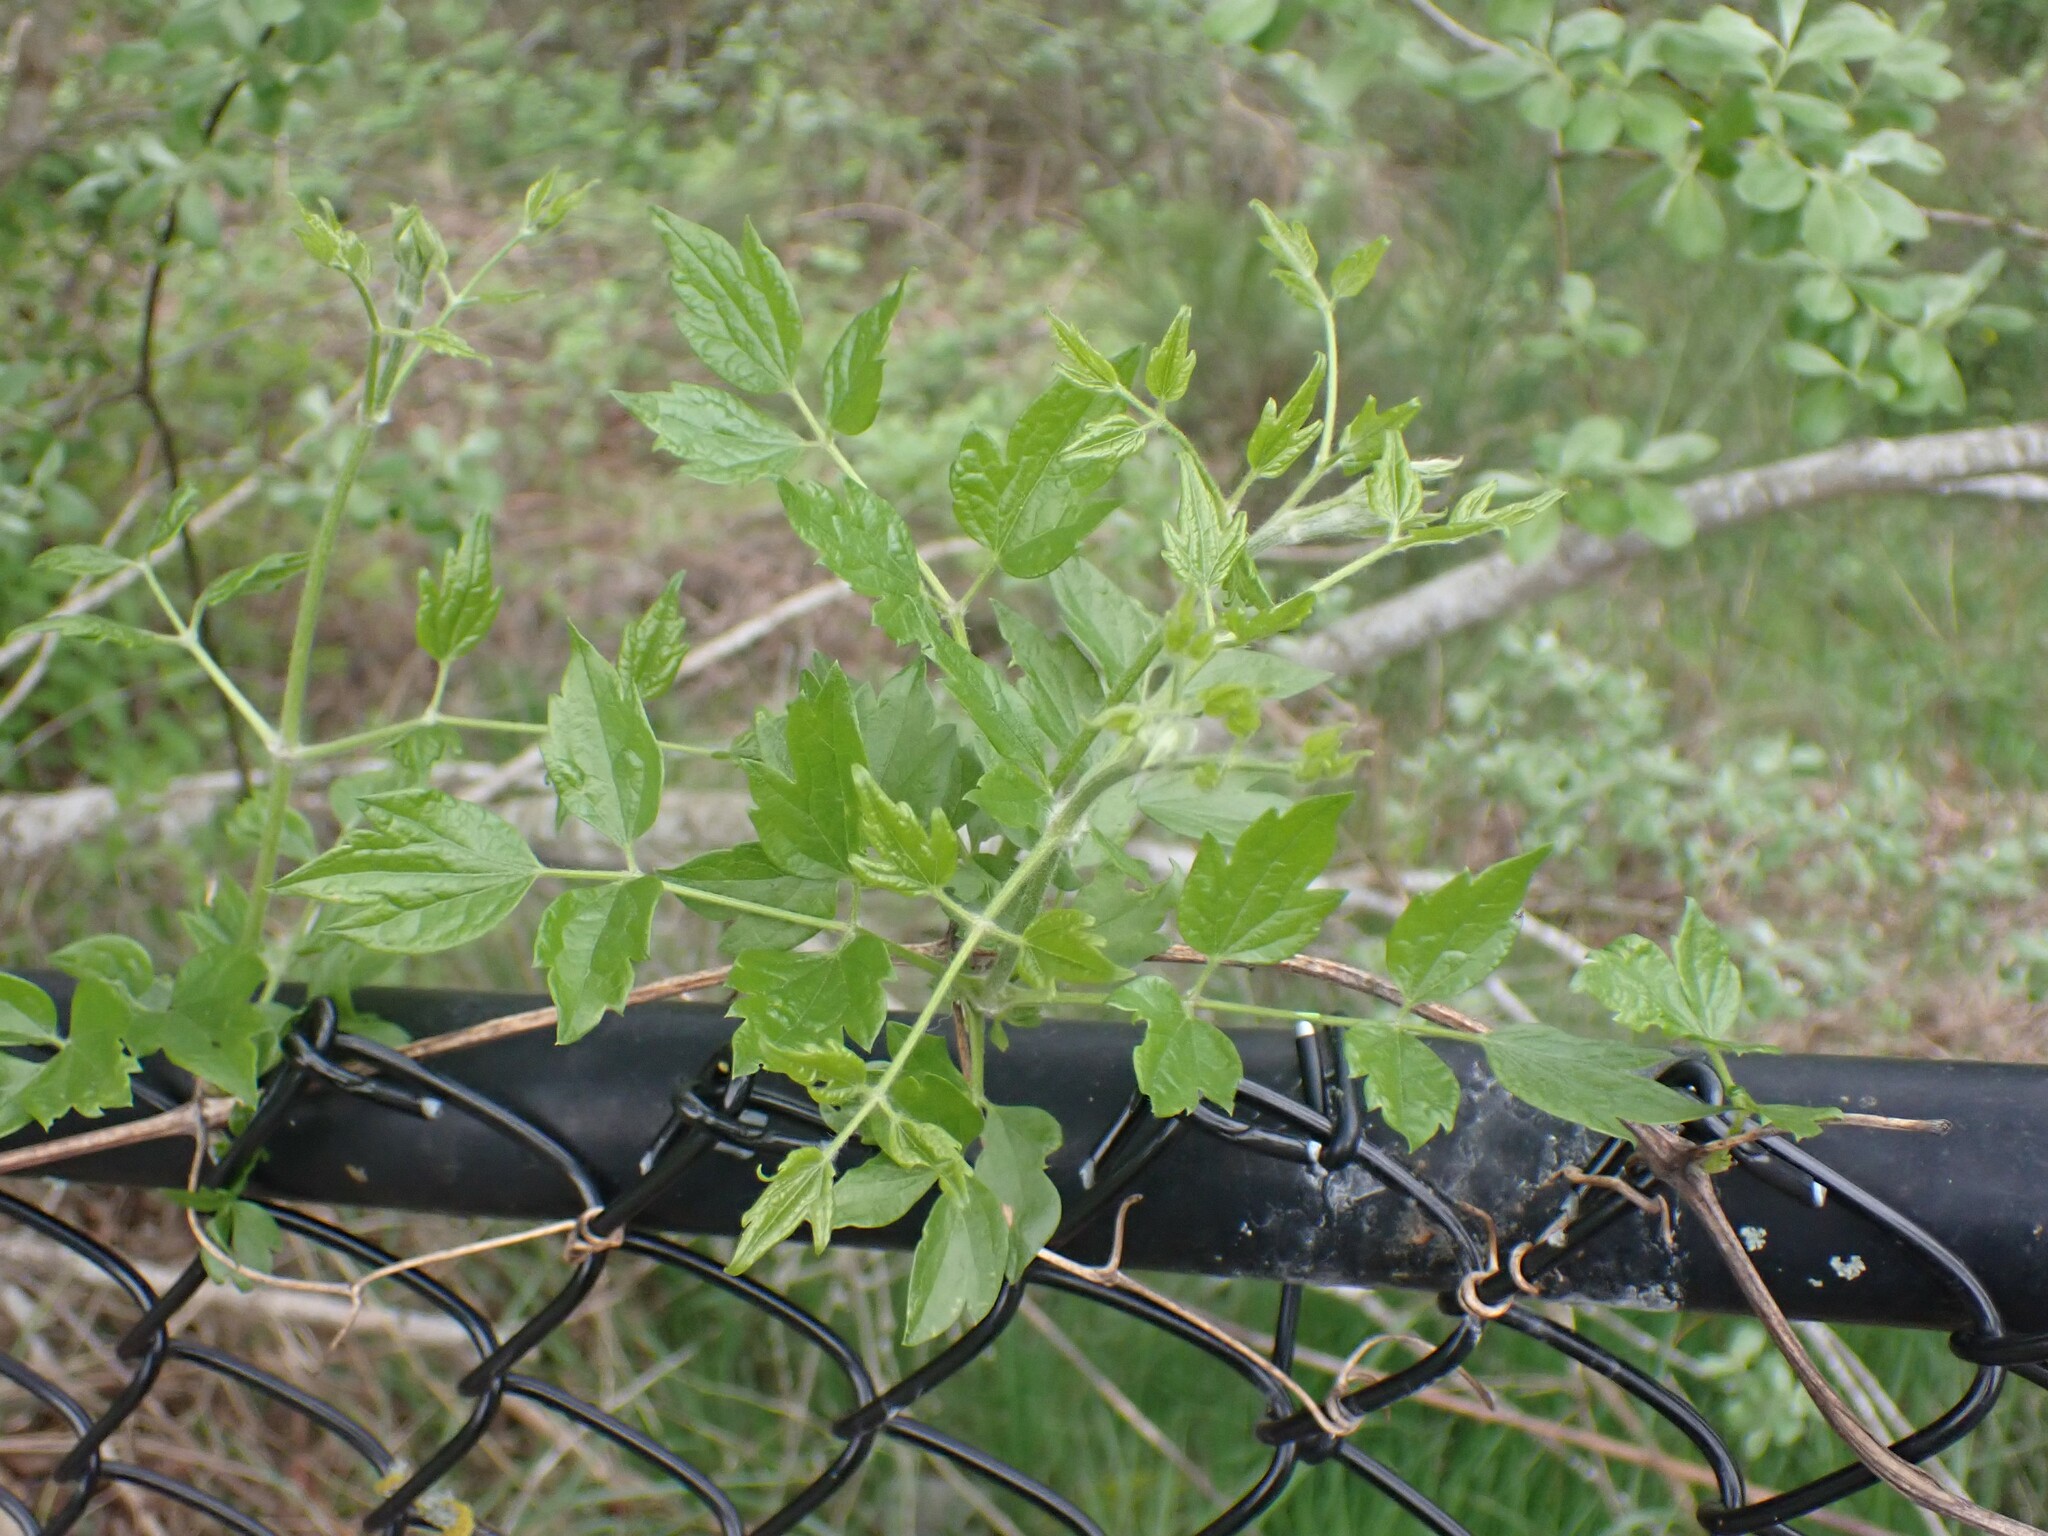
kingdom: Plantae
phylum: Tracheophyta
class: Magnoliopsida
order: Ranunculales
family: Ranunculaceae
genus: Clematis
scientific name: Clematis vitalba
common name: Evergreen clematis
